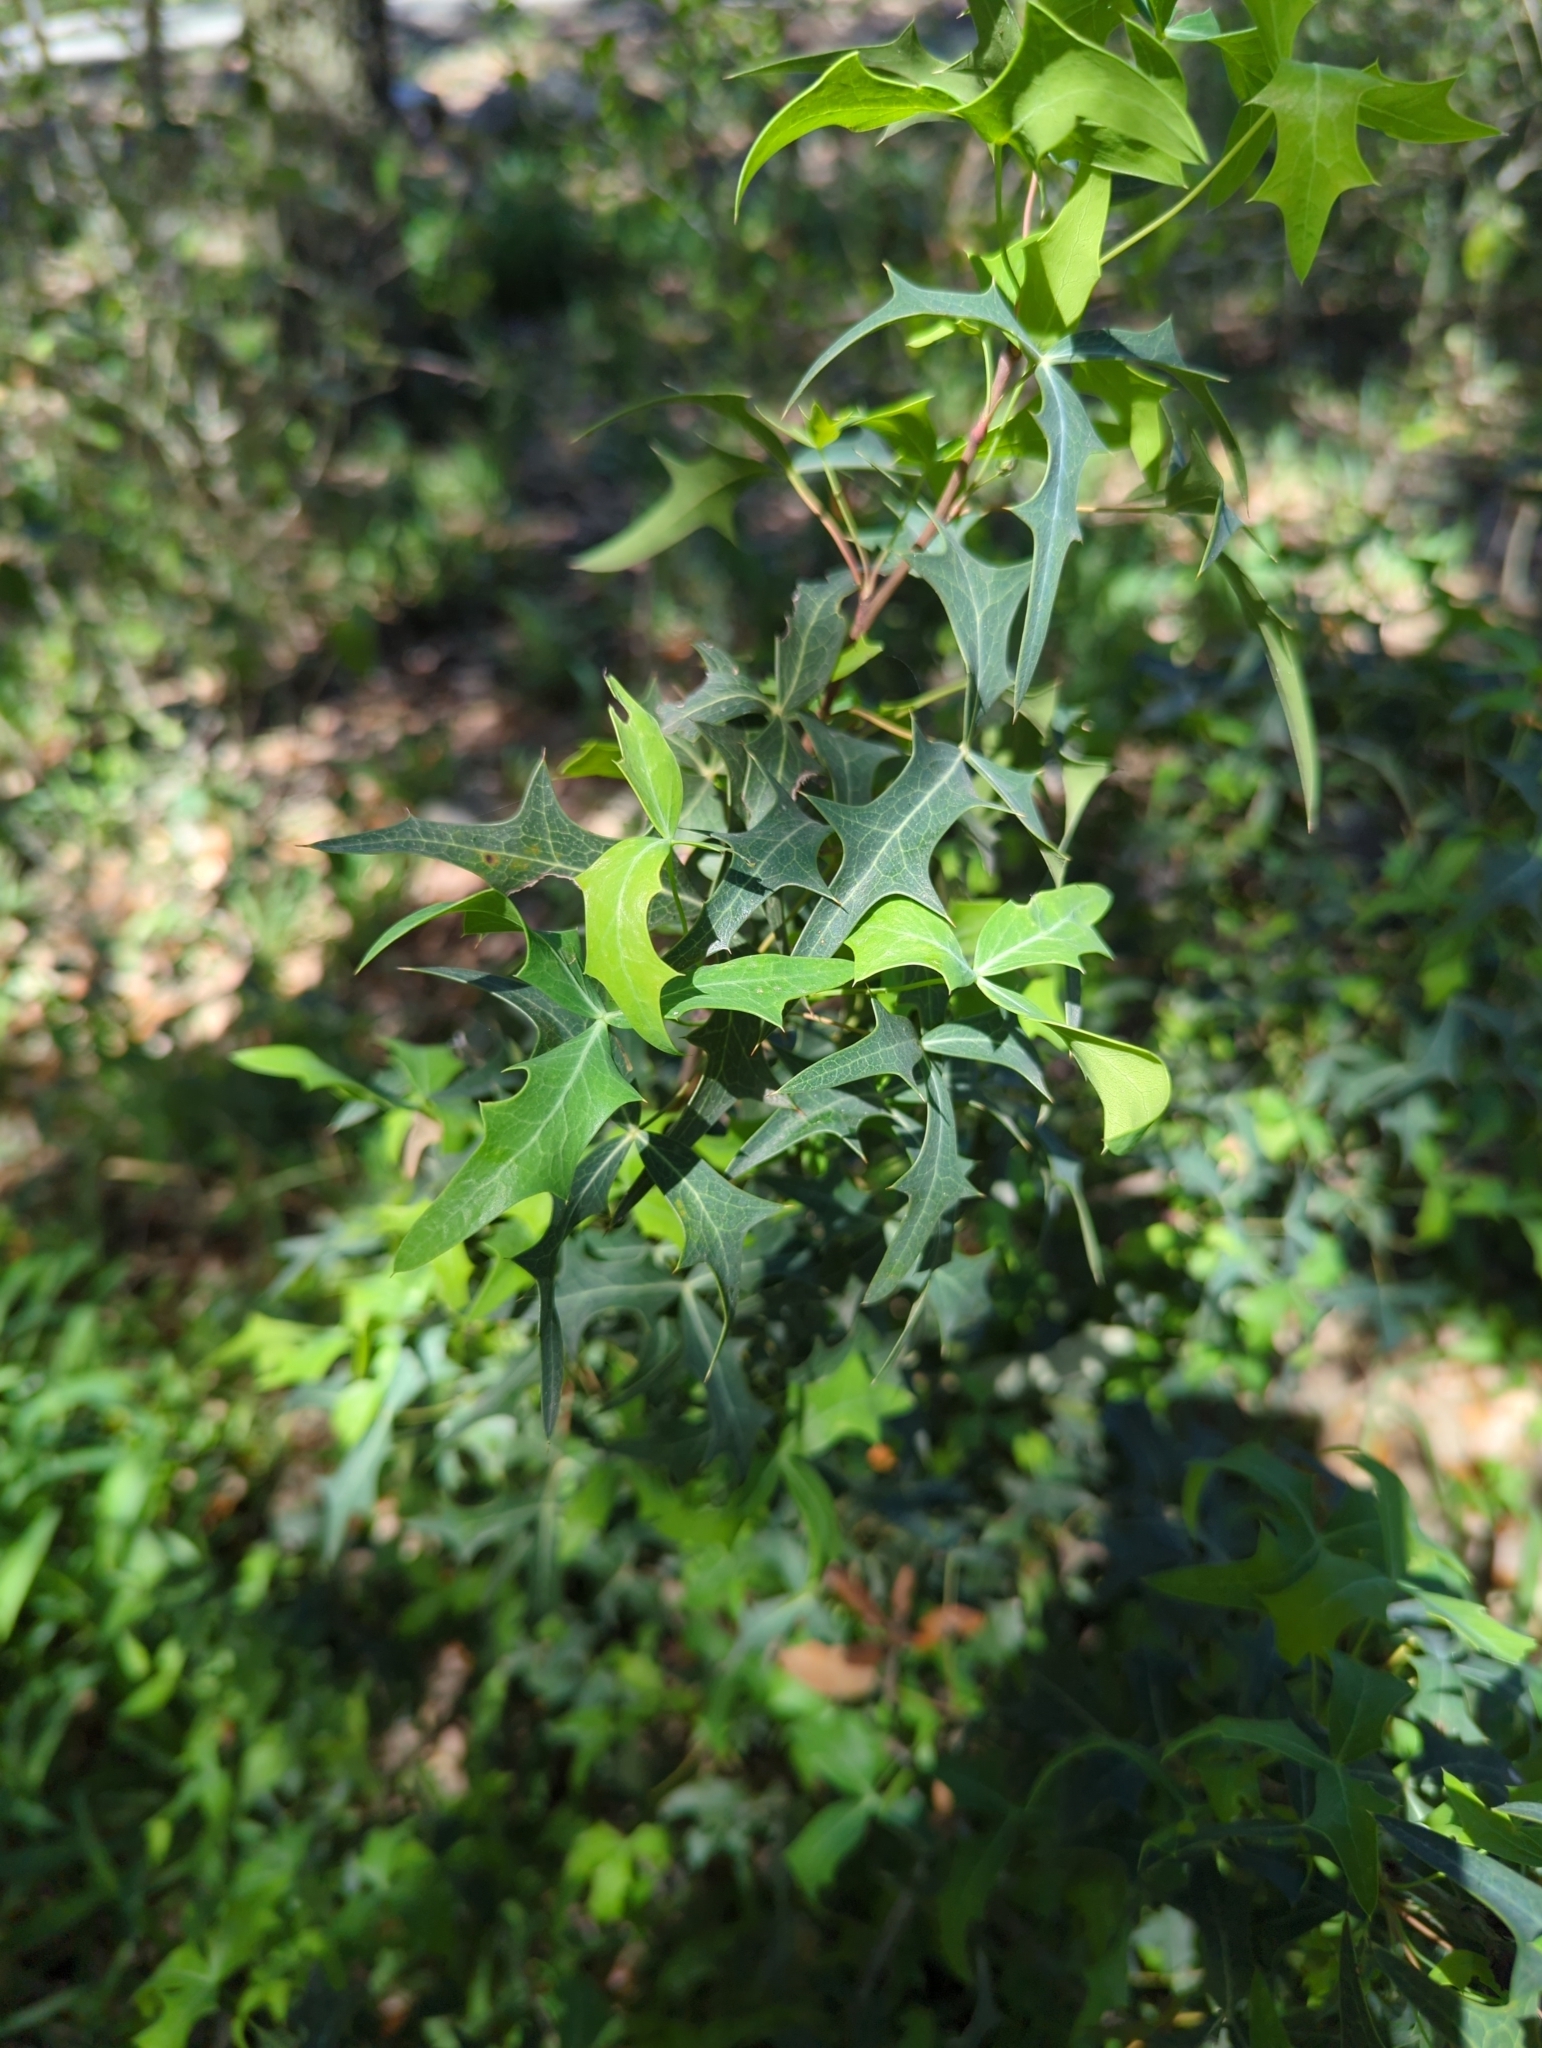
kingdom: Plantae
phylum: Tracheophyta
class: Magnoliopsida
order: Ranunculales
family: Berberidaceae
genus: Alloberberis
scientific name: Alloberberis trifoliolata
